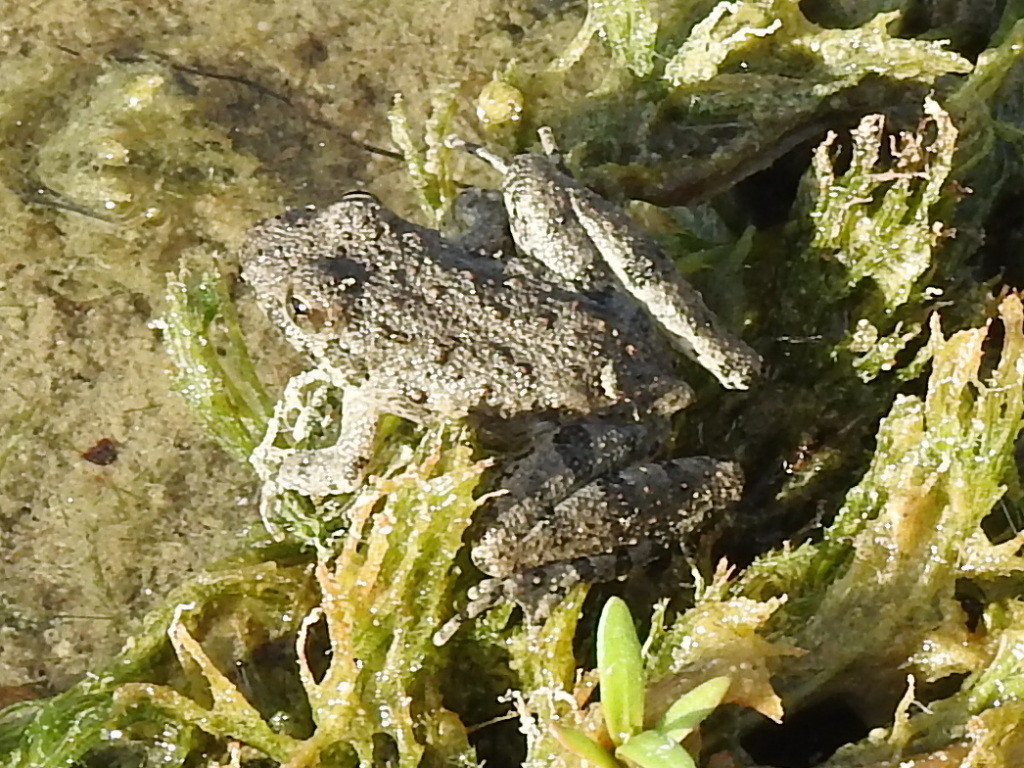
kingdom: Animalia
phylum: Chordata
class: Amphibia
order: Anura
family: Hylidae
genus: Acris
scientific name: Acris blanchardi
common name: Blanchard's cricket frog
